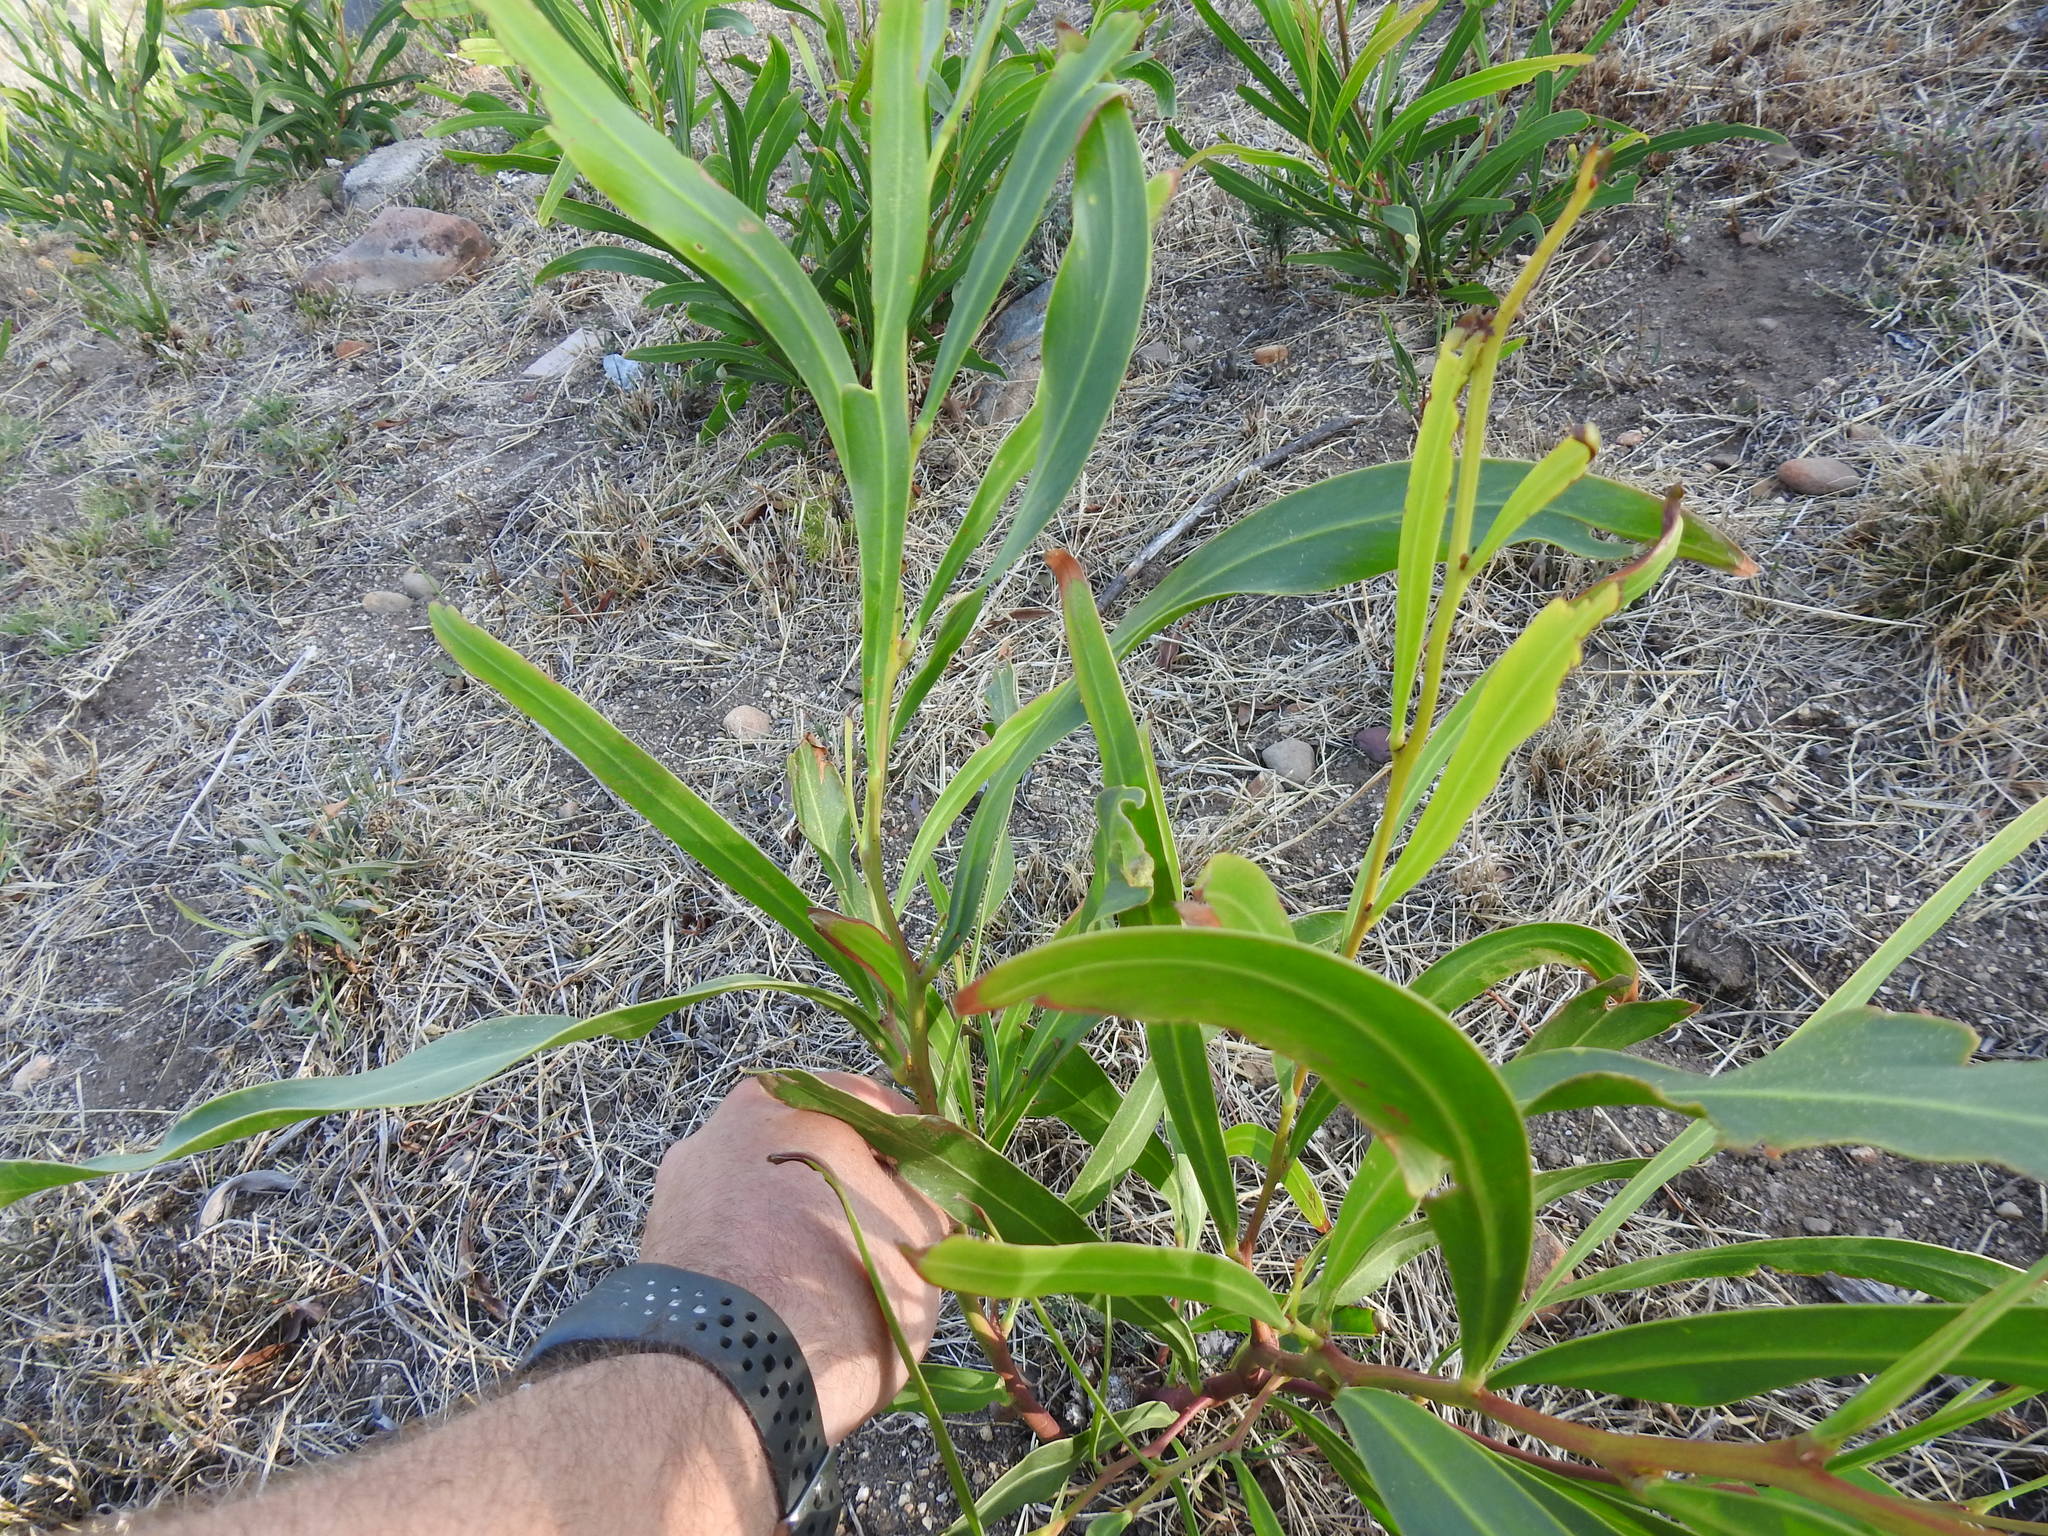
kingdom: Plantae
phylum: Tracheophyta
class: Magnoliopsida
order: Fabales
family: Fabaceae
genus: Acacia
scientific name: Acacia saligna
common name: Orange wattle
